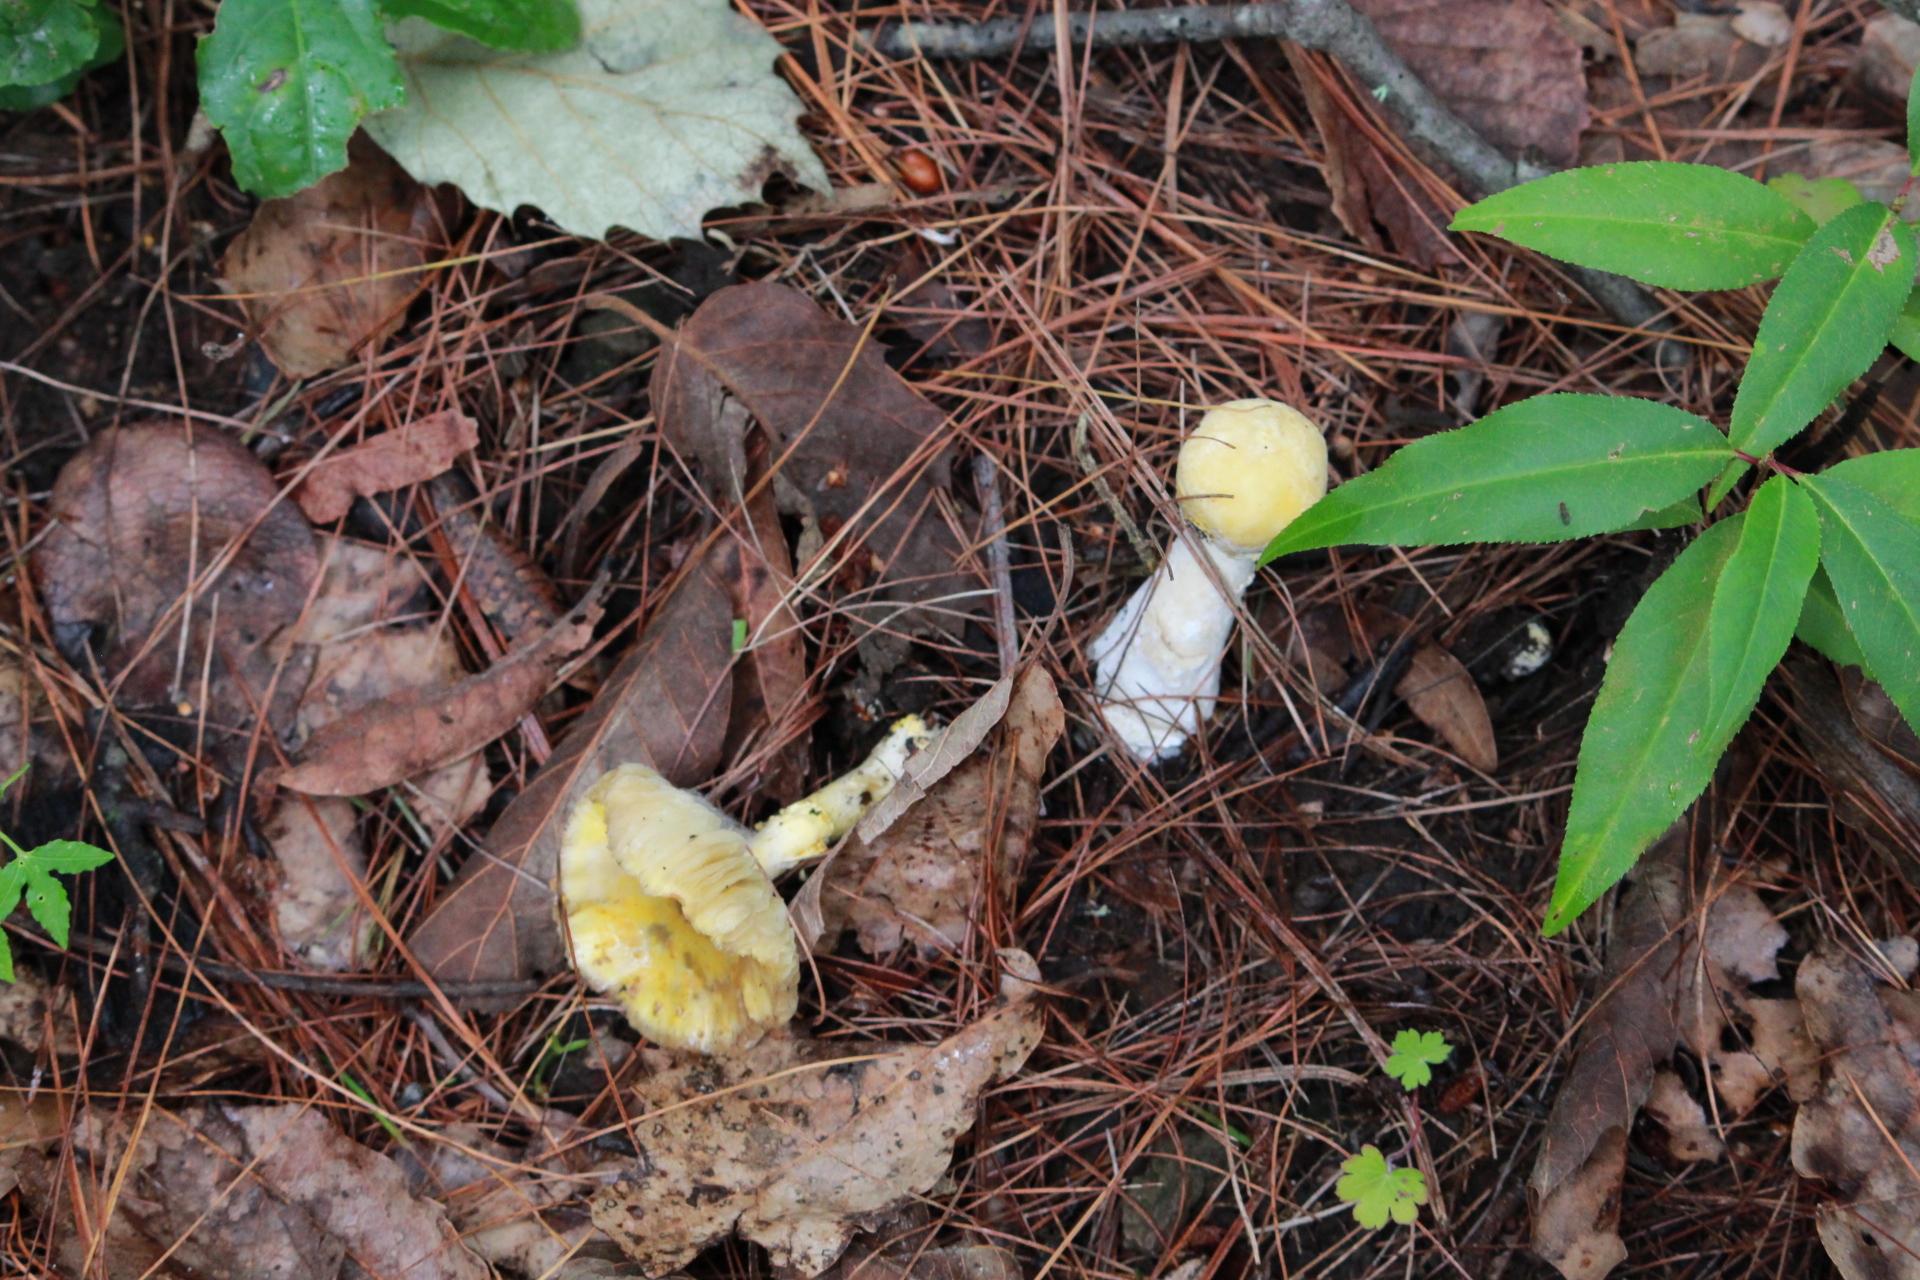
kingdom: Fungi
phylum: Basidiomycota
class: Agaricomycetes
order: Agaricales
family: Amanitaceae
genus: Amanita
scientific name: Amanita flavoconia
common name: Yellow patches
